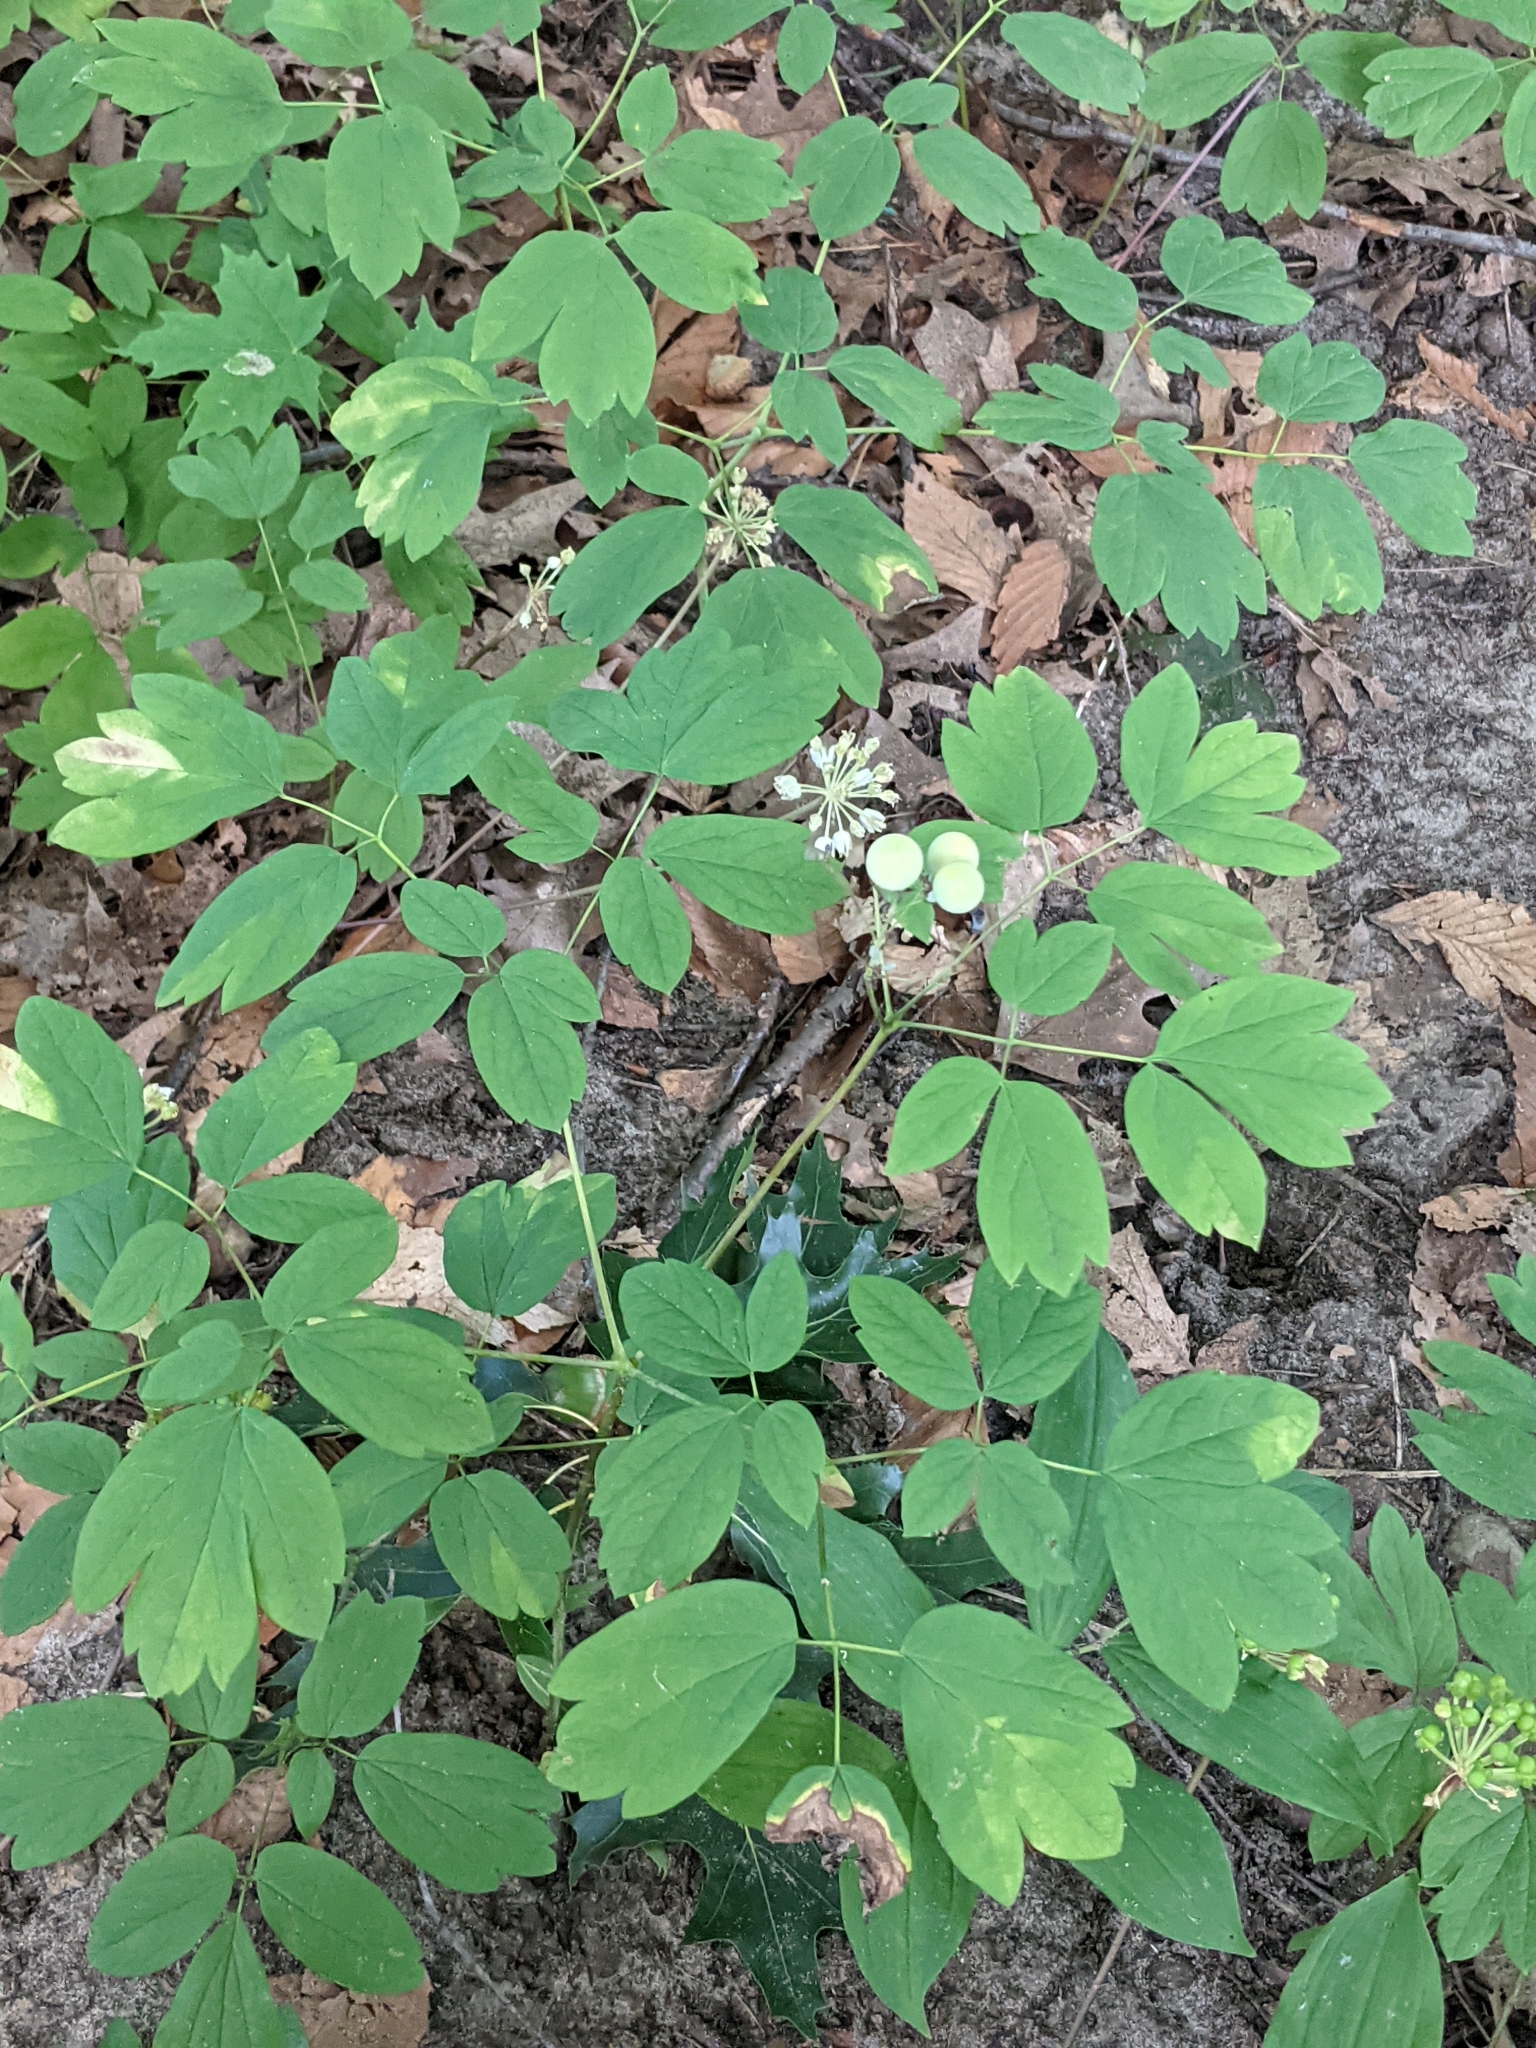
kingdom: Plantae
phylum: Tracheophyta
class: Magnoliopsida
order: Ranunculales
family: Berberidaceae
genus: Caulophyllum
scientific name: Caulophyllum thalictroides
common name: Blue cohosh
